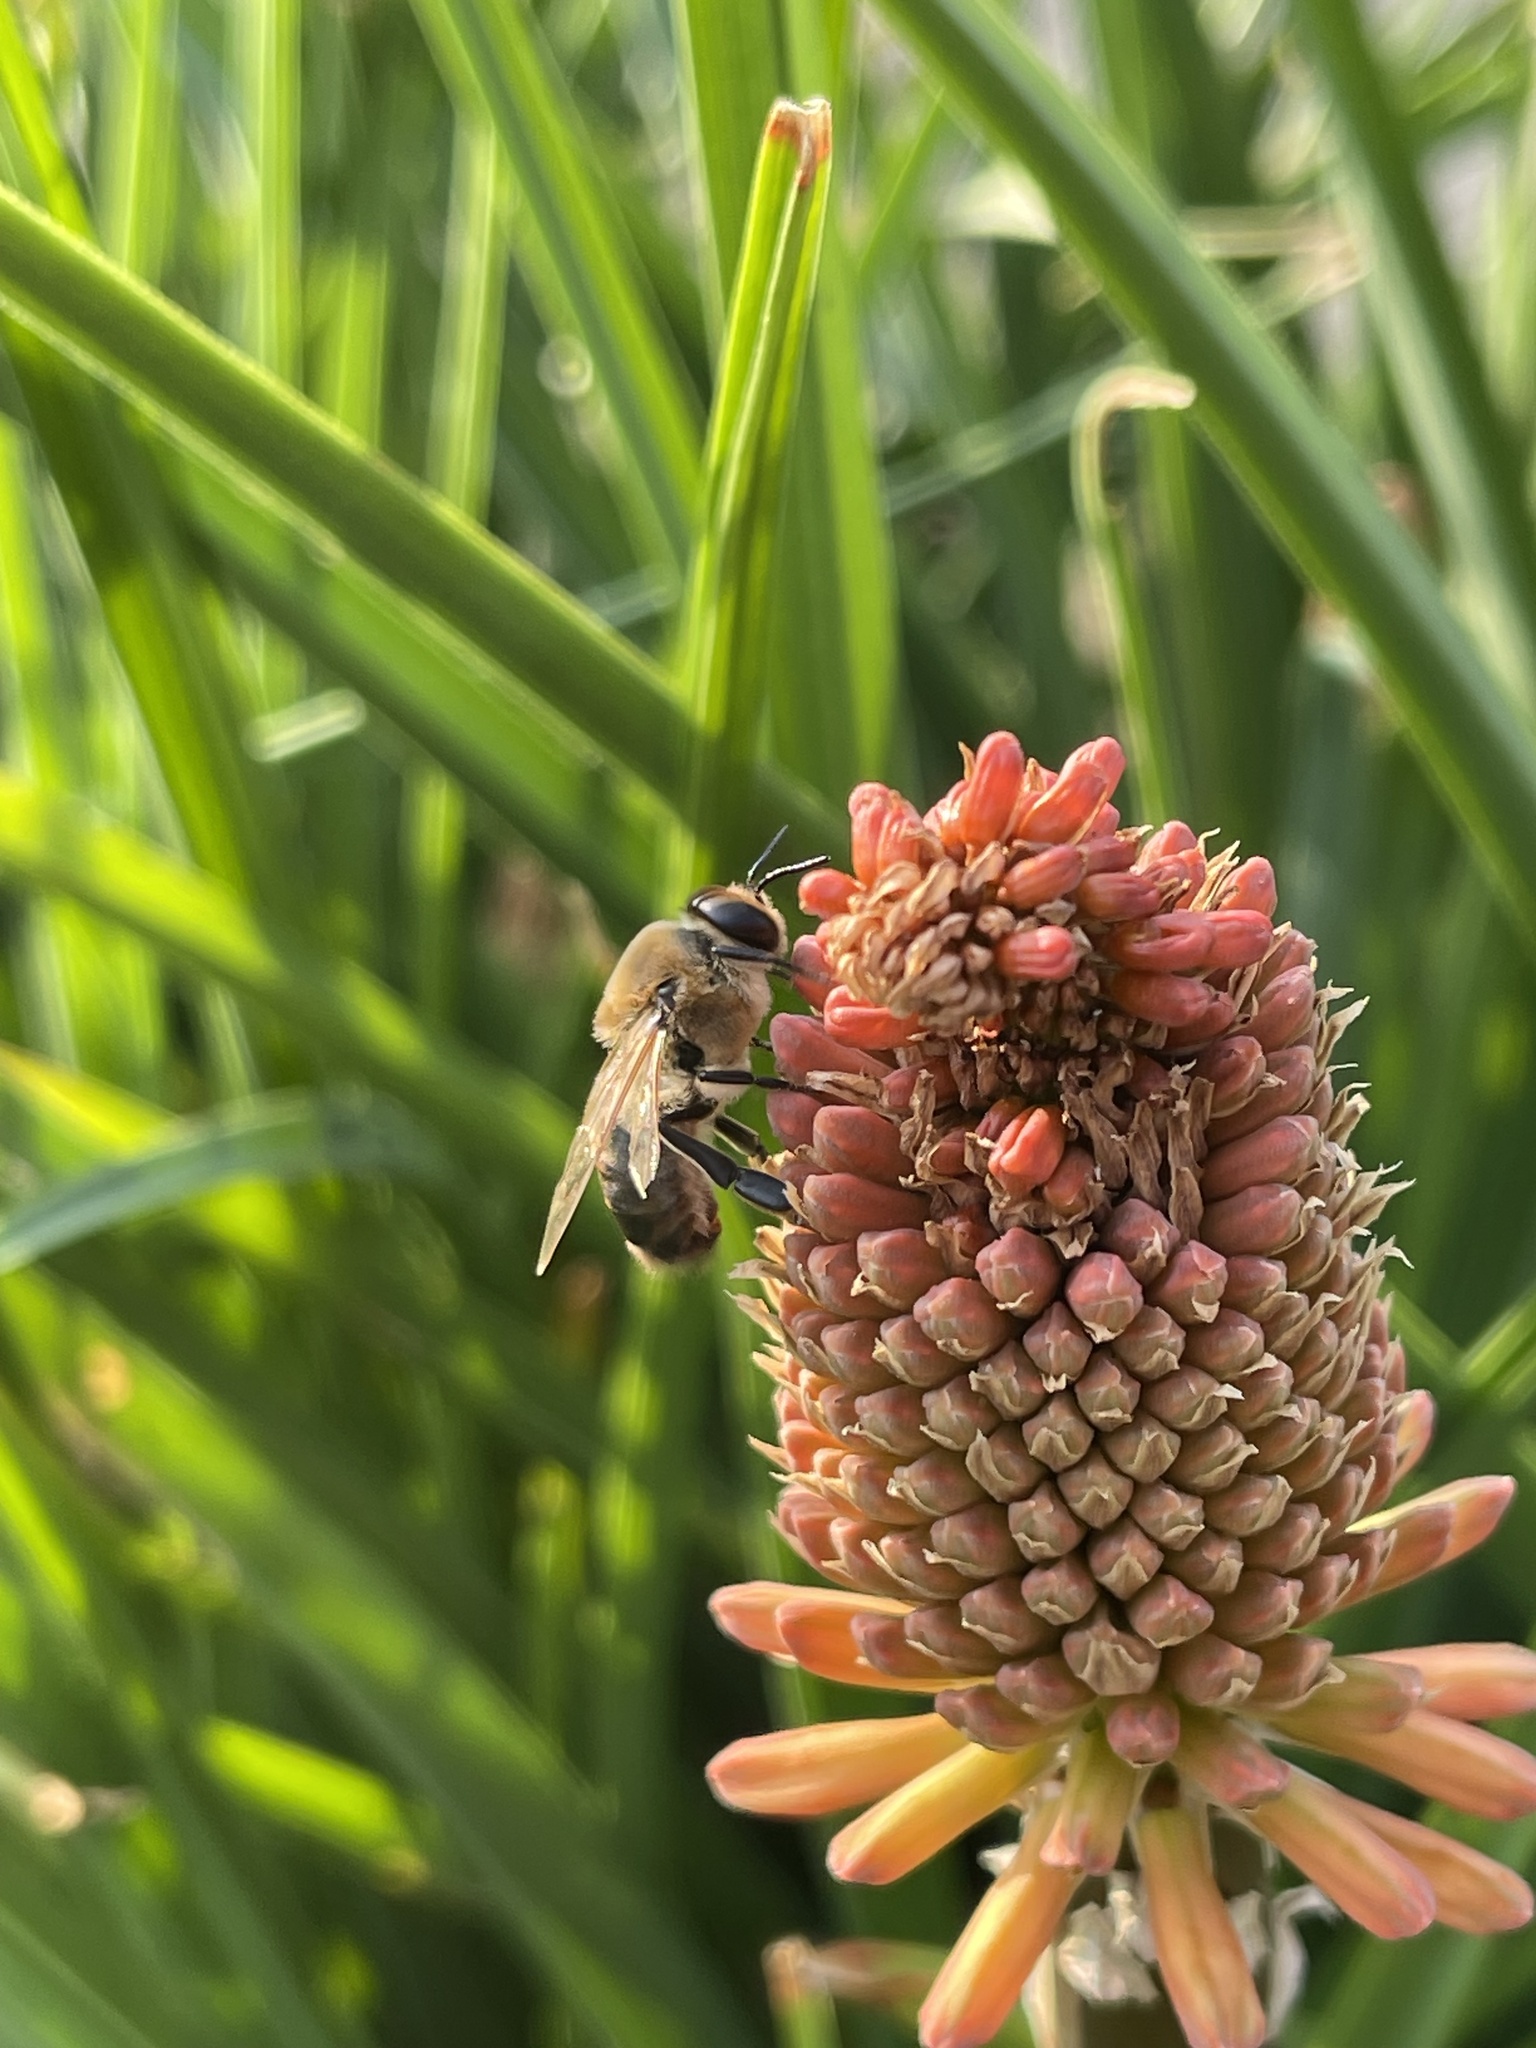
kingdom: Animalia
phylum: Arthropoda
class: Insecta
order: Hymenoptera
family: Apidae
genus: Apis
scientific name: Apis mellifera
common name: Honey bee
